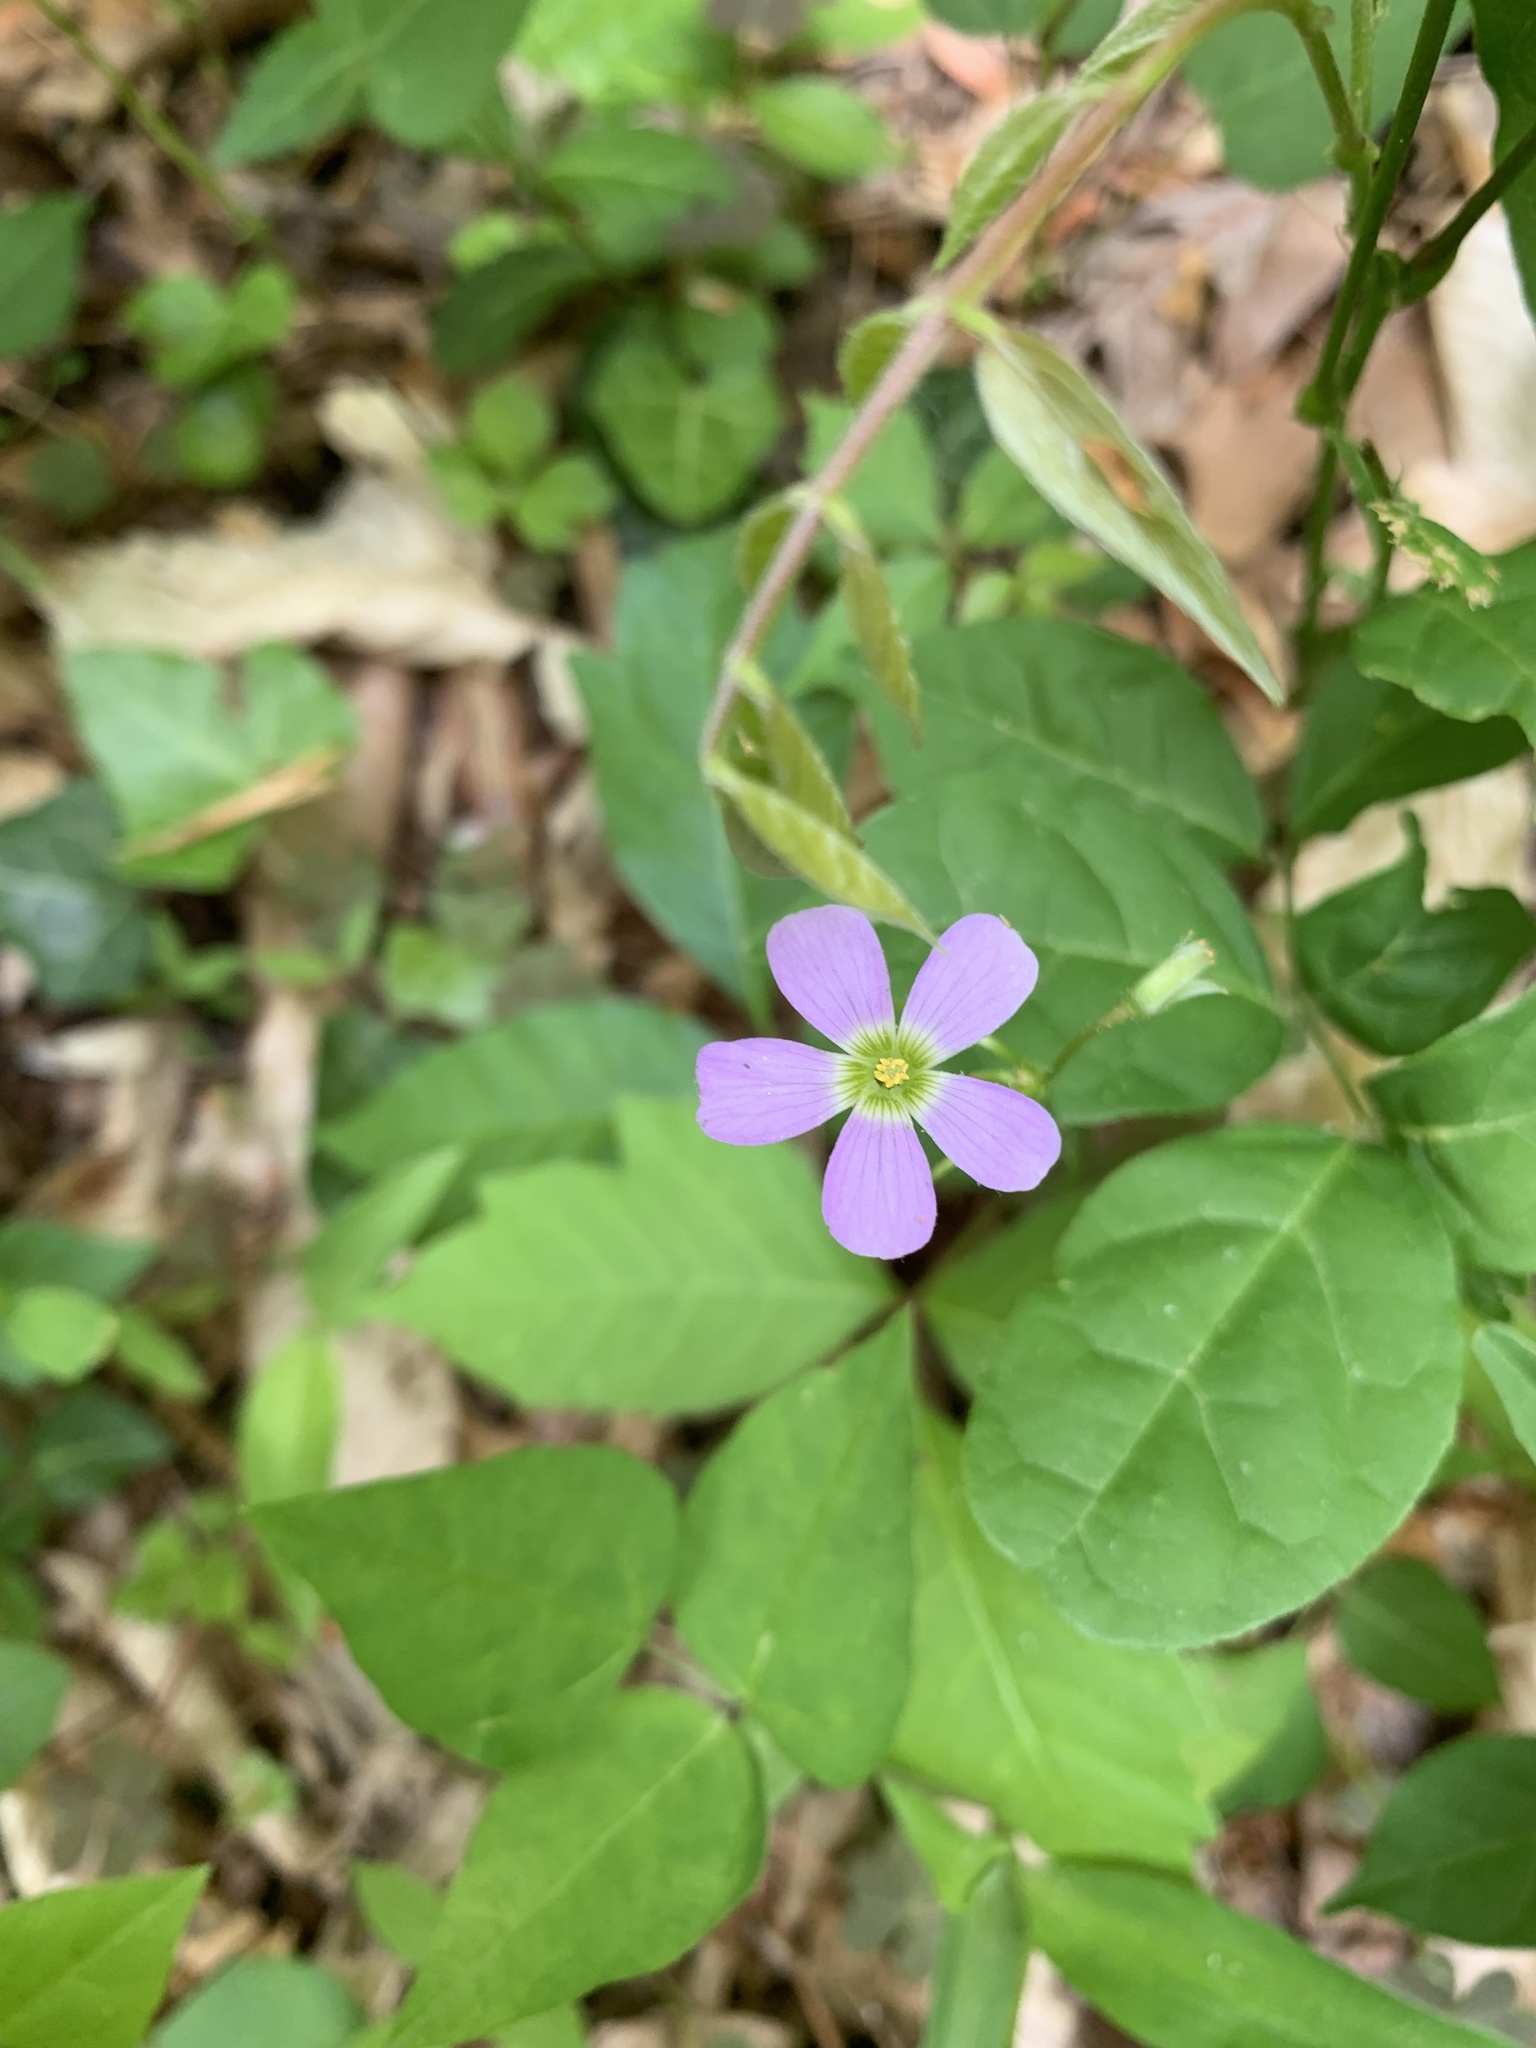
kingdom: Plantae
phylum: Tracheophyta
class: Magnoliopsida
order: Oxalidales
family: Oxalidaceae
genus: Oxalis
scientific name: Oxalis violacea
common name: Violet wood-sorrel
